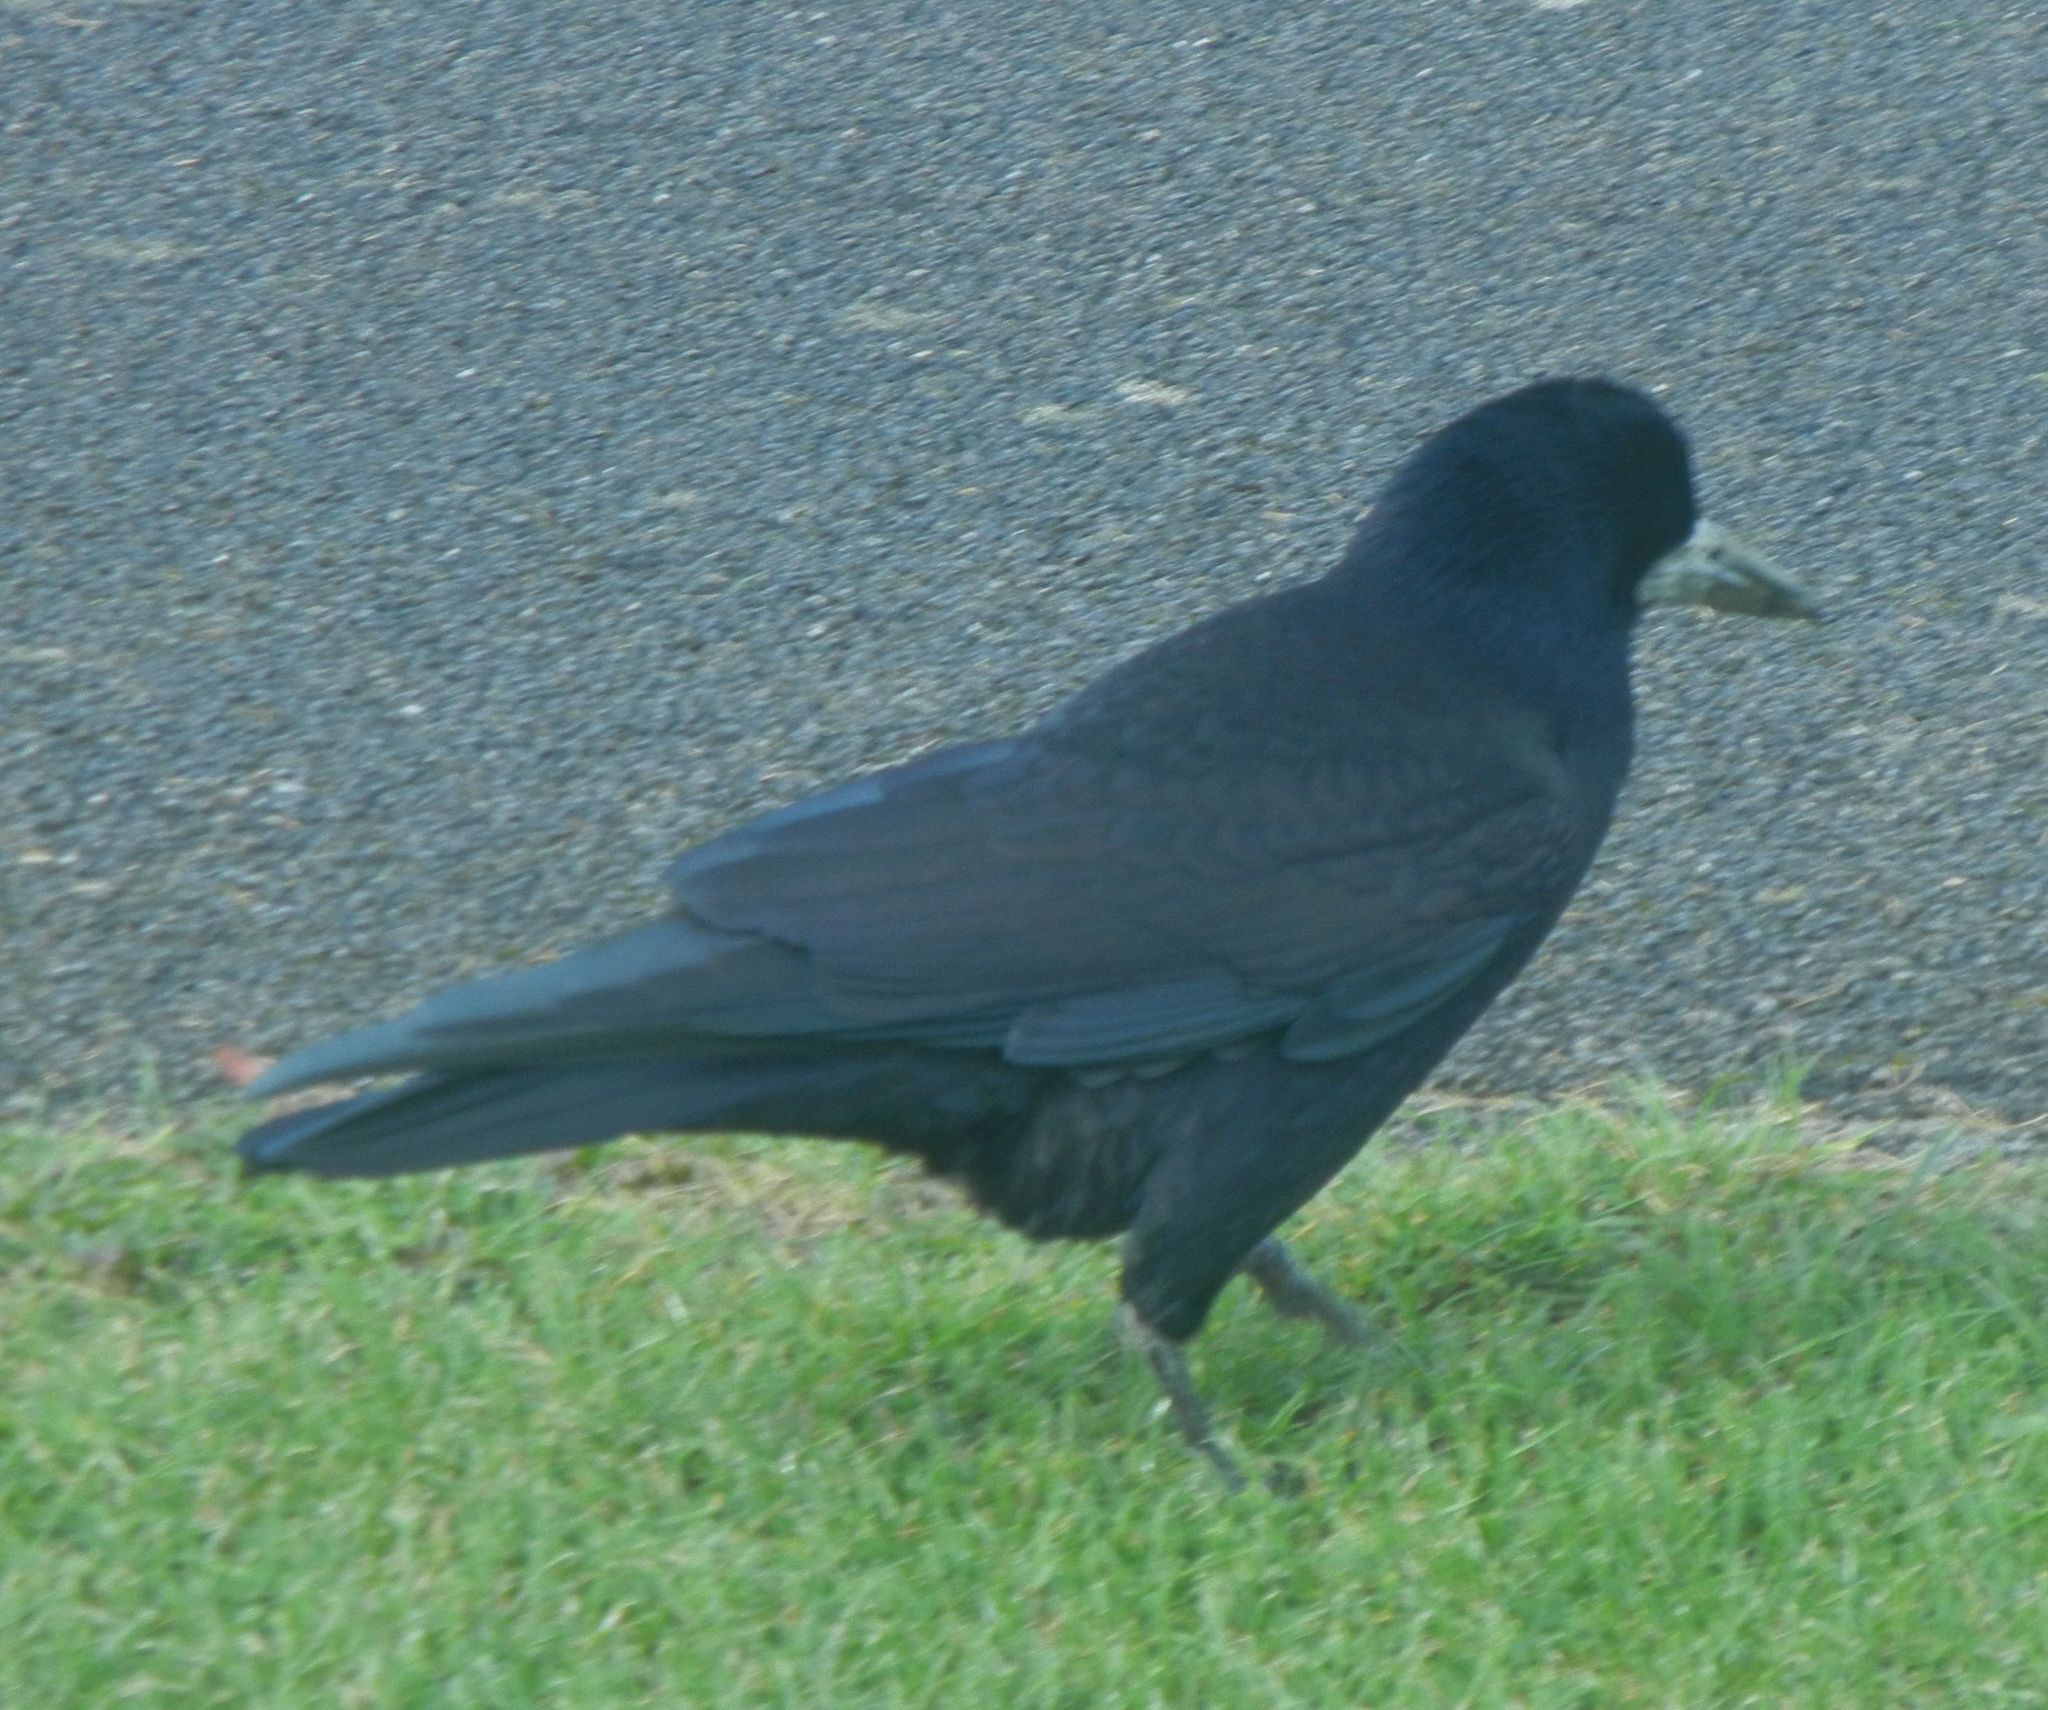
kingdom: Animalia
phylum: Chordata
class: Aves
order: Passeriformes
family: Corvidae
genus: Corvus
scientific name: Corvus frugilegus
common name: Rook
